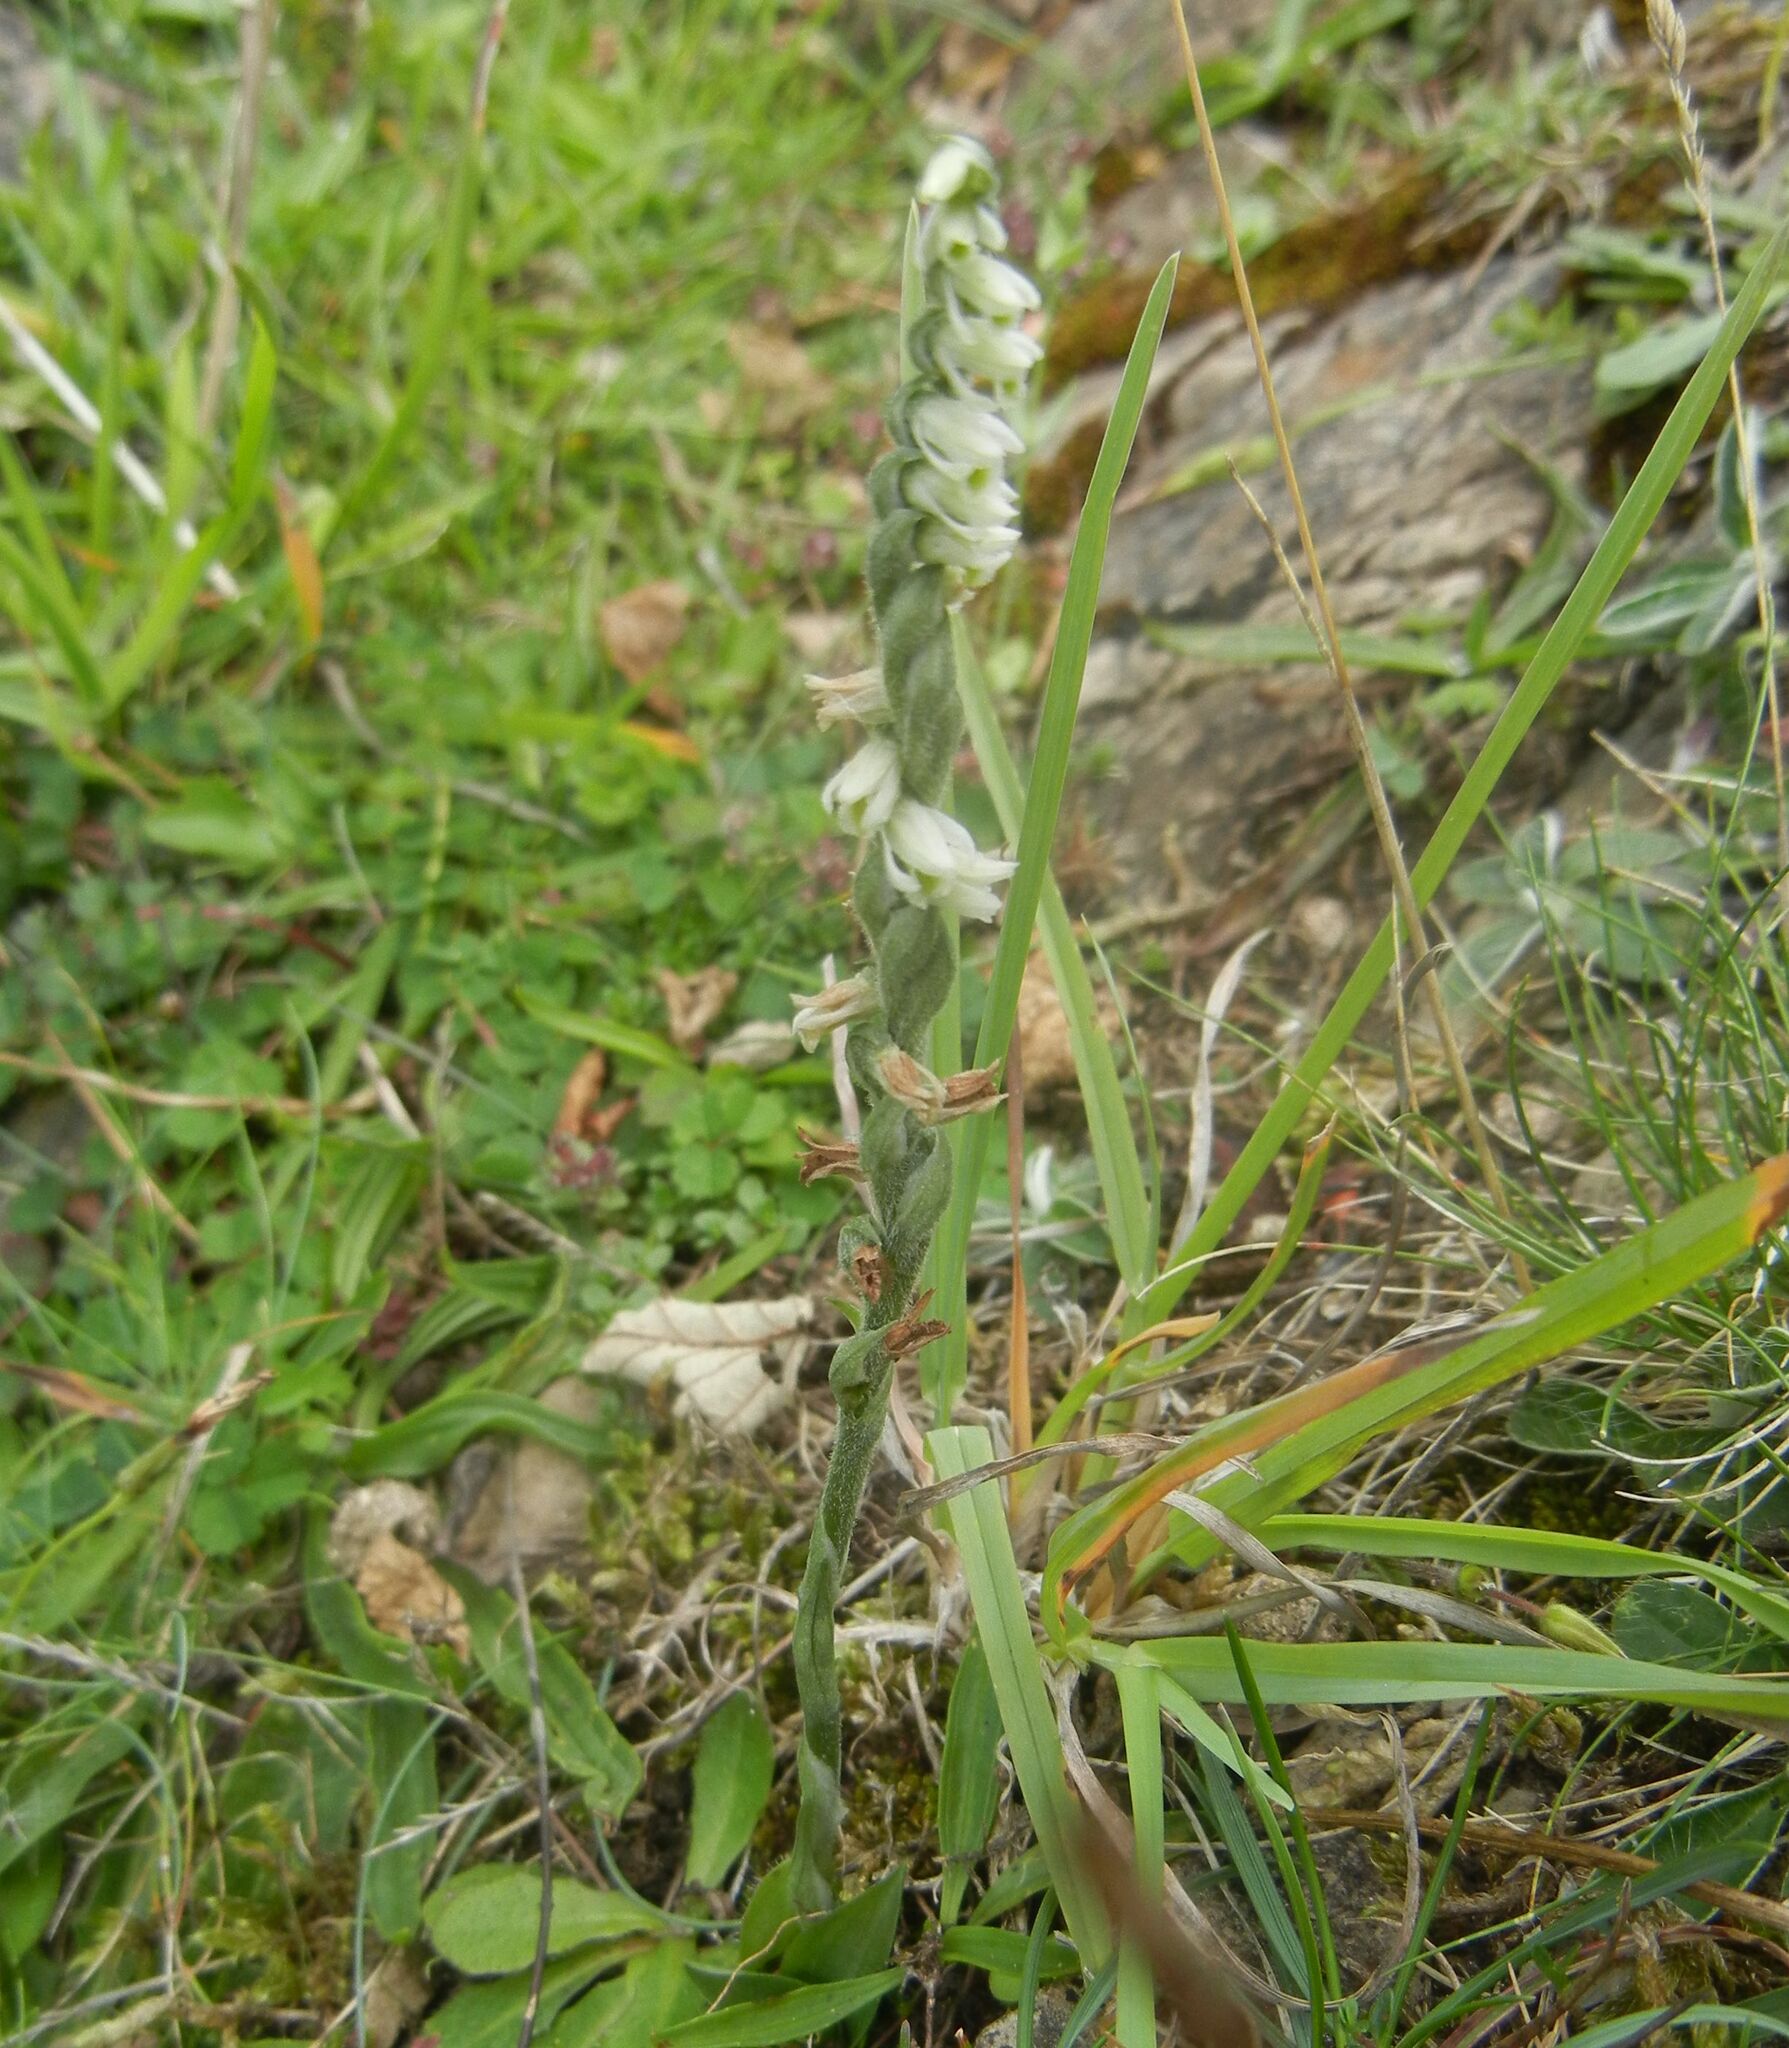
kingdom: Plantae
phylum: Tracheophyta
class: Liliopsida
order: Asparagales
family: Orchidaceae
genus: Spiranthes
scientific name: Spiranthes spiralis
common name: Autumn lady's-tresses
